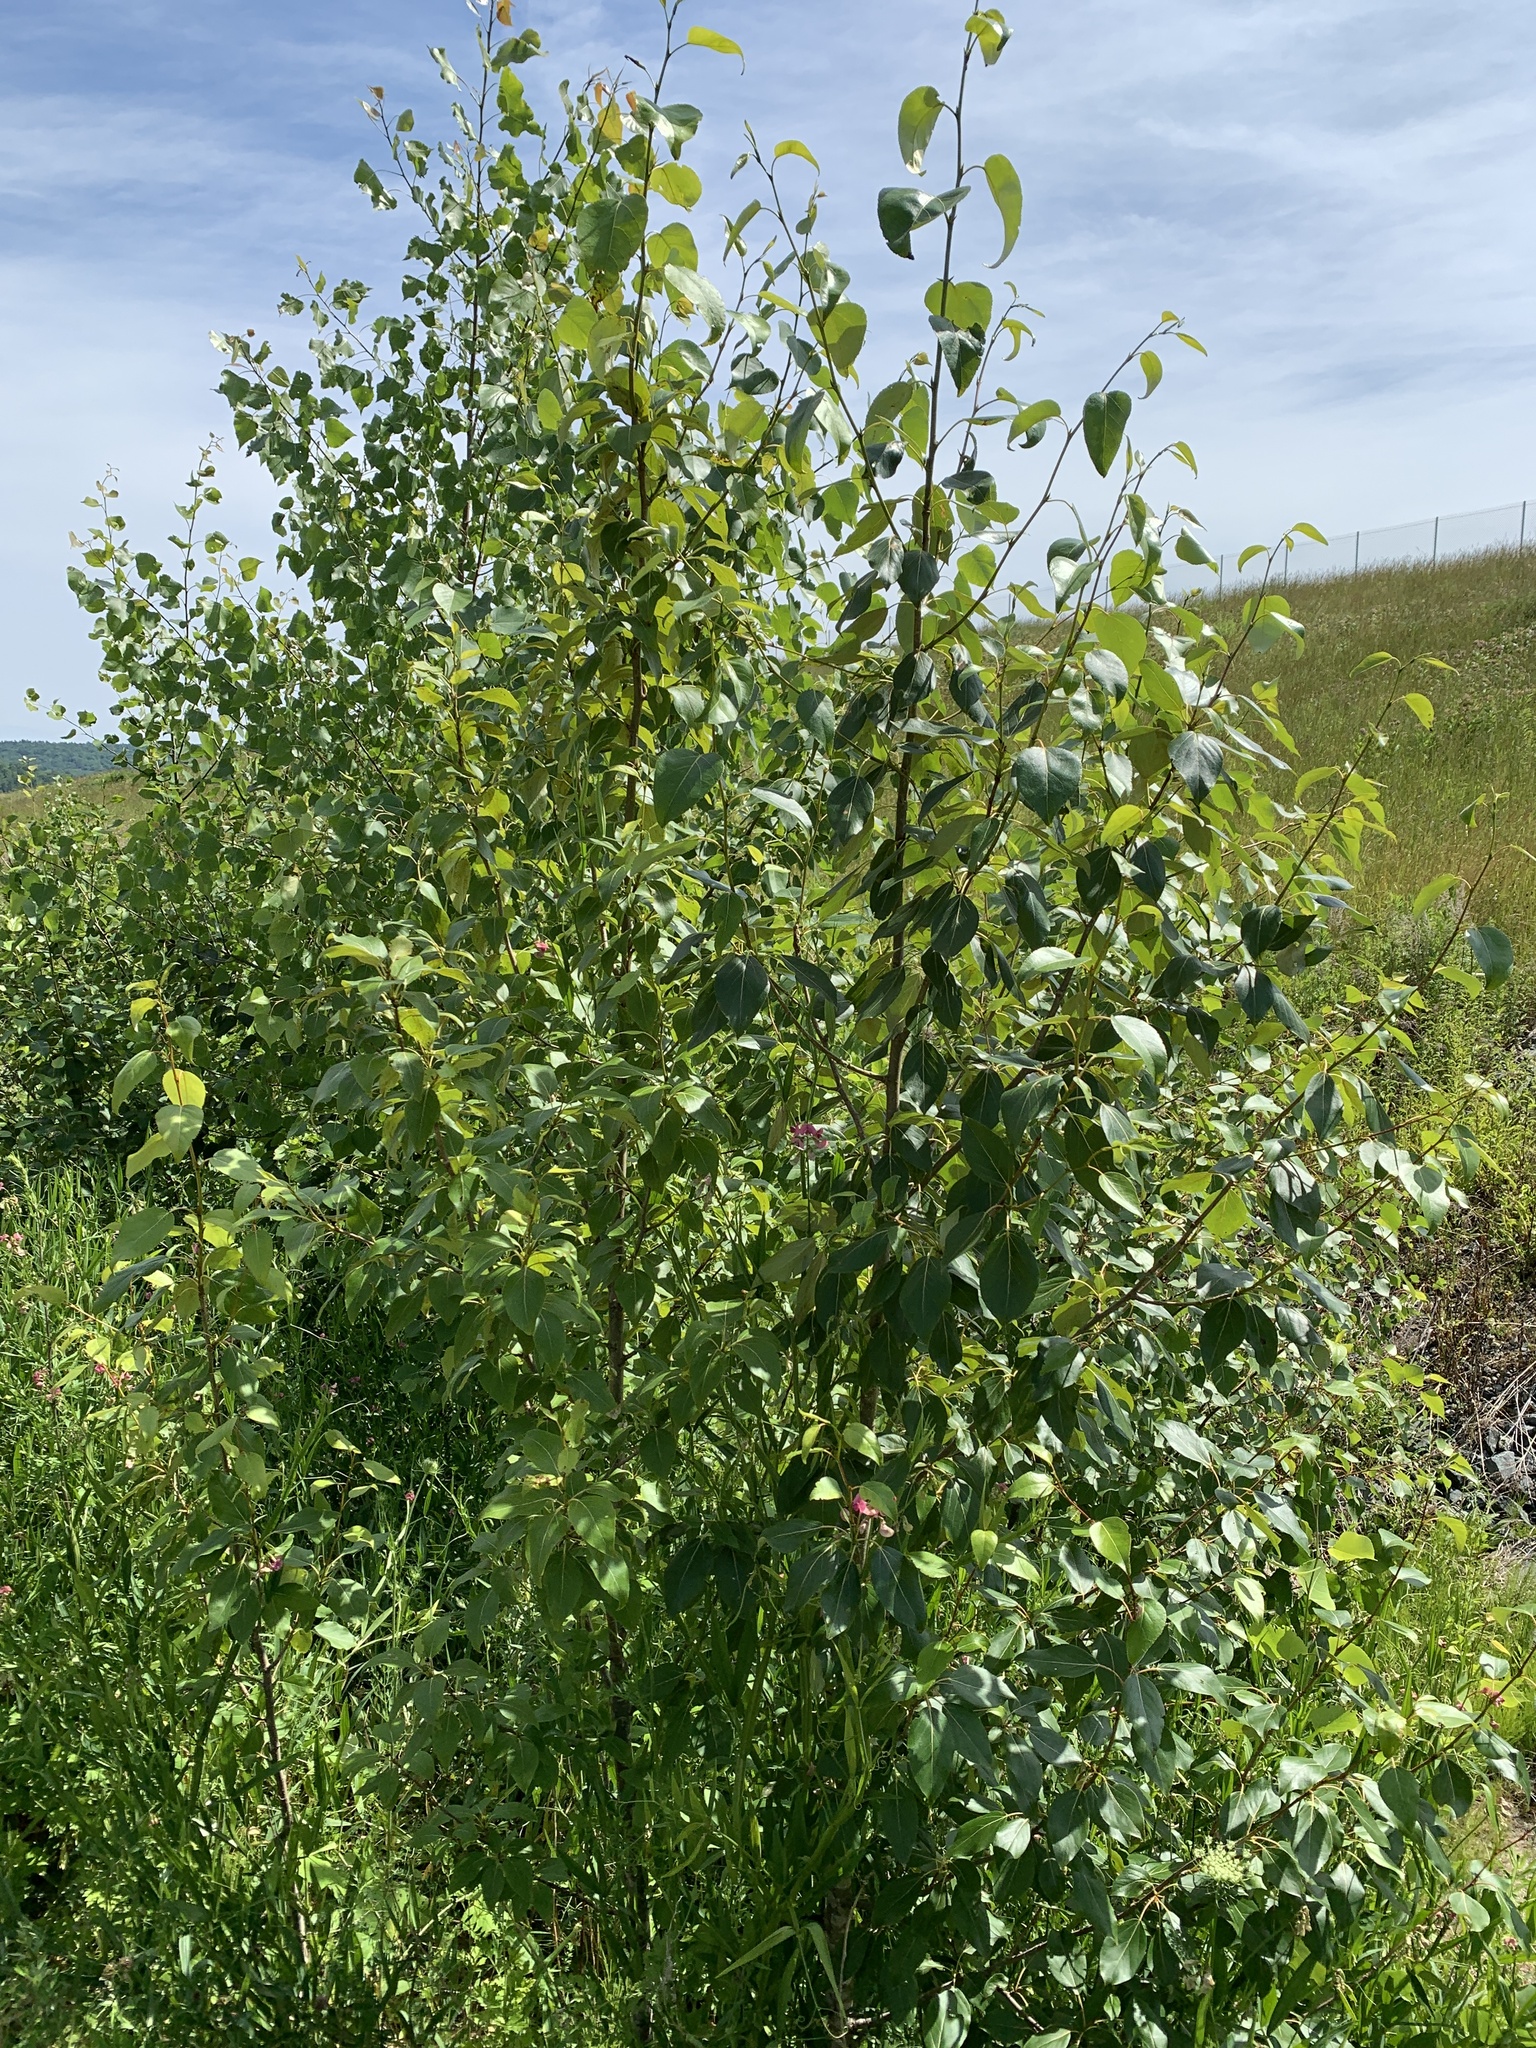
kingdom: Plantae
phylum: Tracheophyta
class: Magnoliopsida
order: Malpighiales
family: Salicaceae
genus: Populus
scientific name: Populus balsamifera
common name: Balsam poplar
